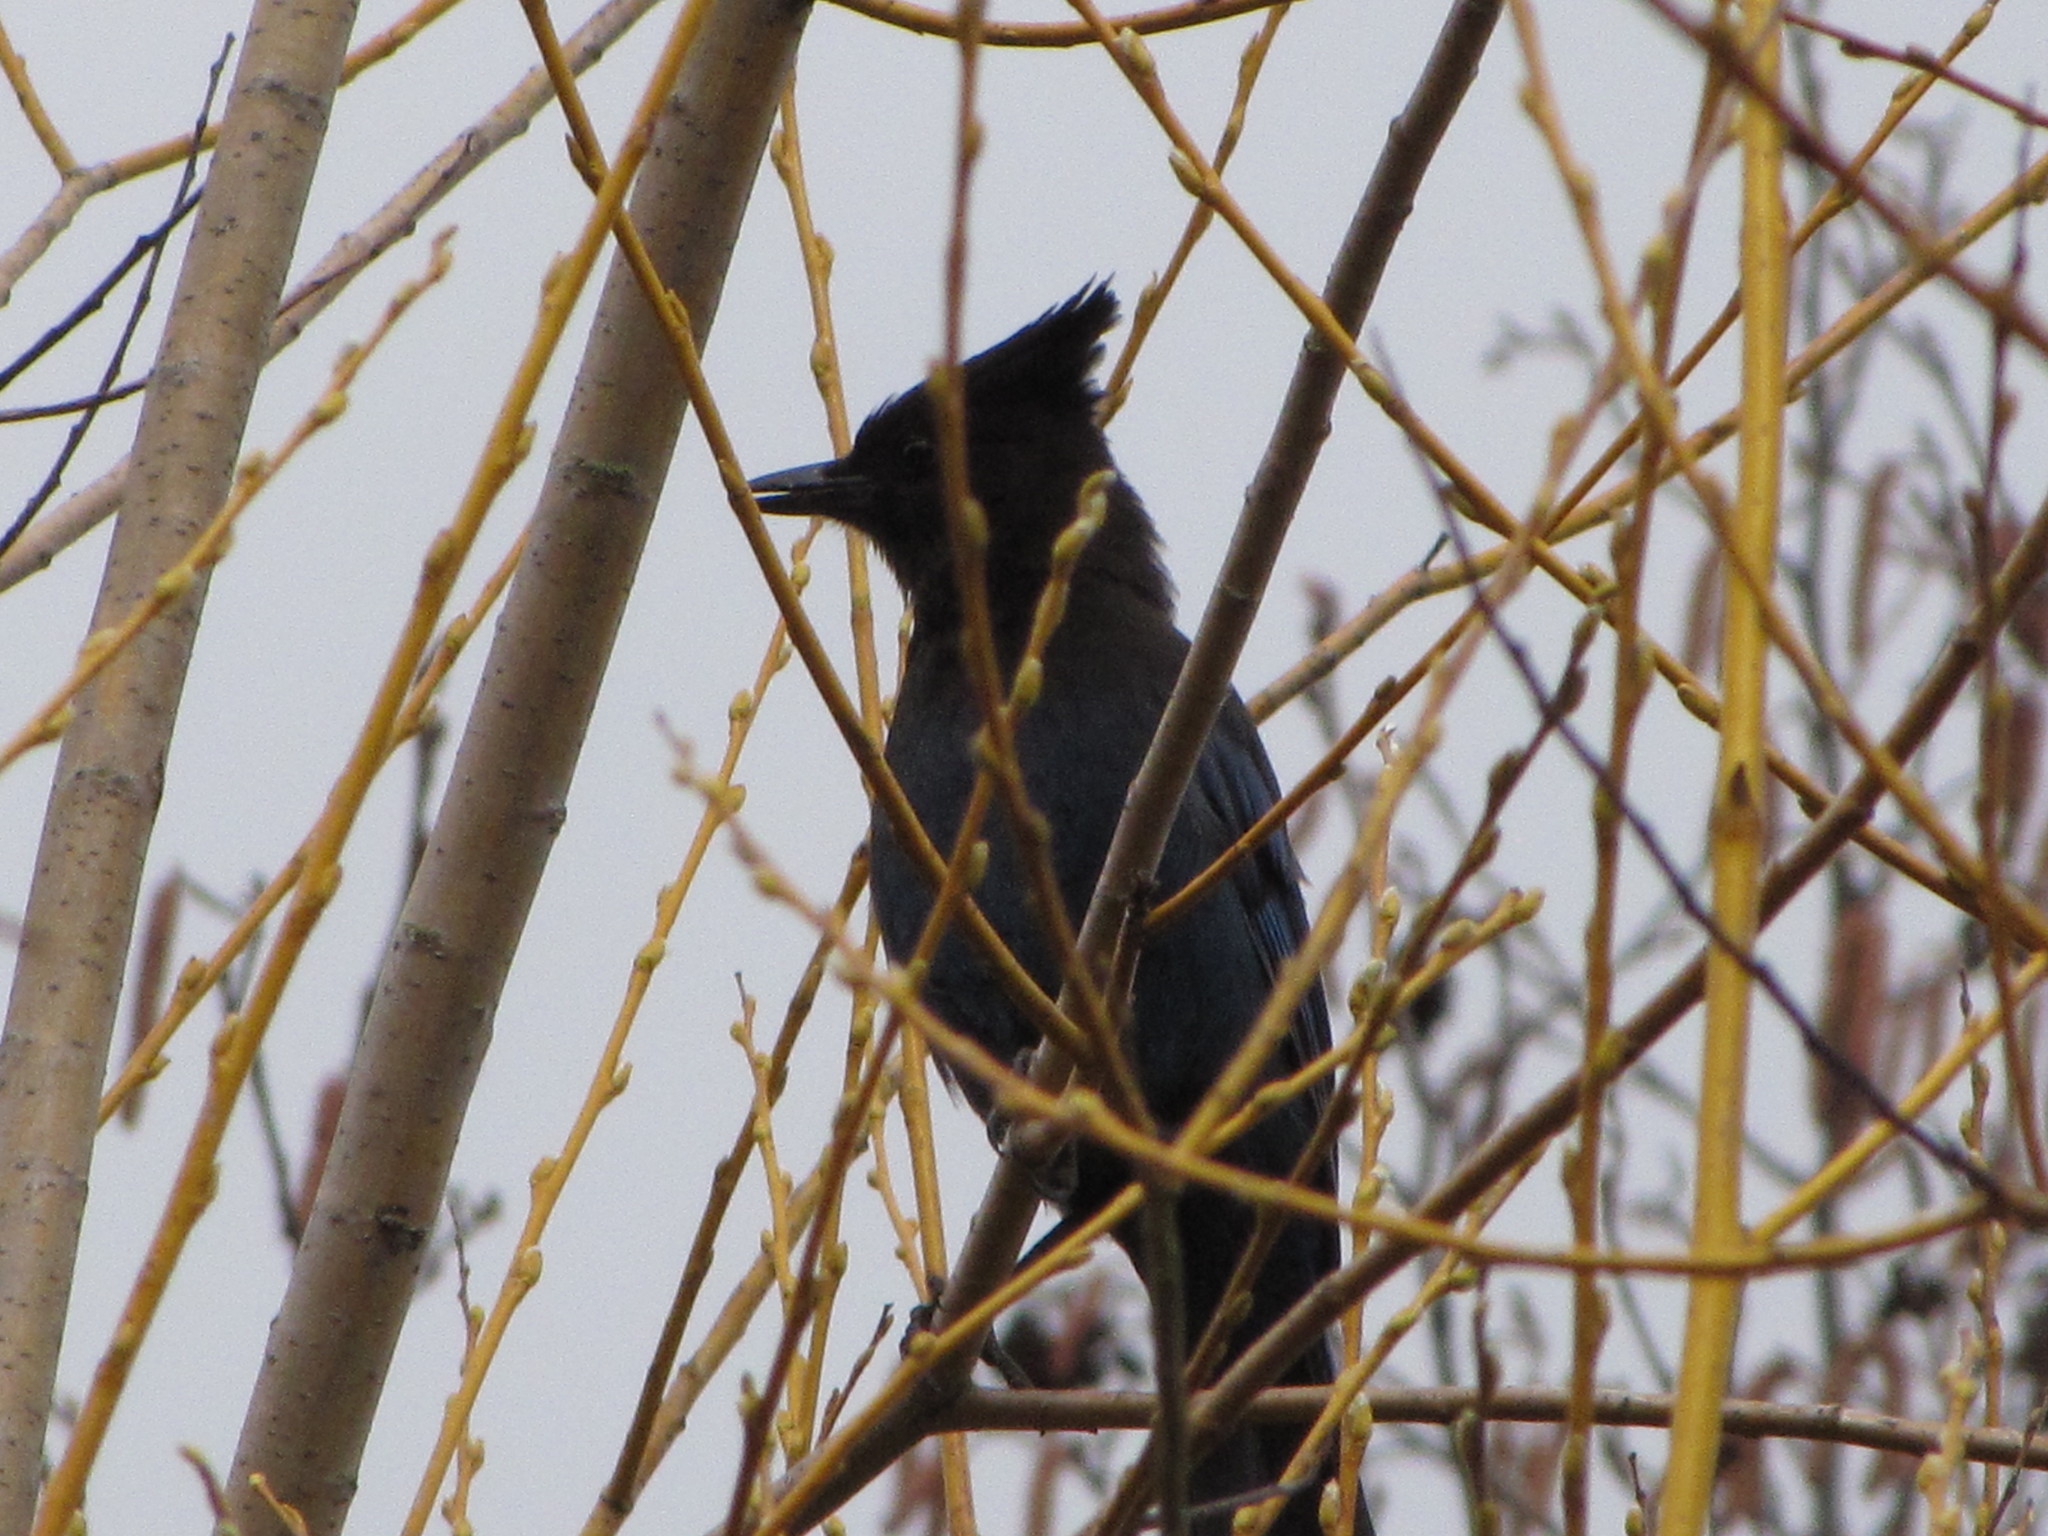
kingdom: Animalia
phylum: Chordata
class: Aves
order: Passeriformes
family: Corvidae
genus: Cyanocitta
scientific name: Cyanocitta stelleri
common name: Steller's jay
